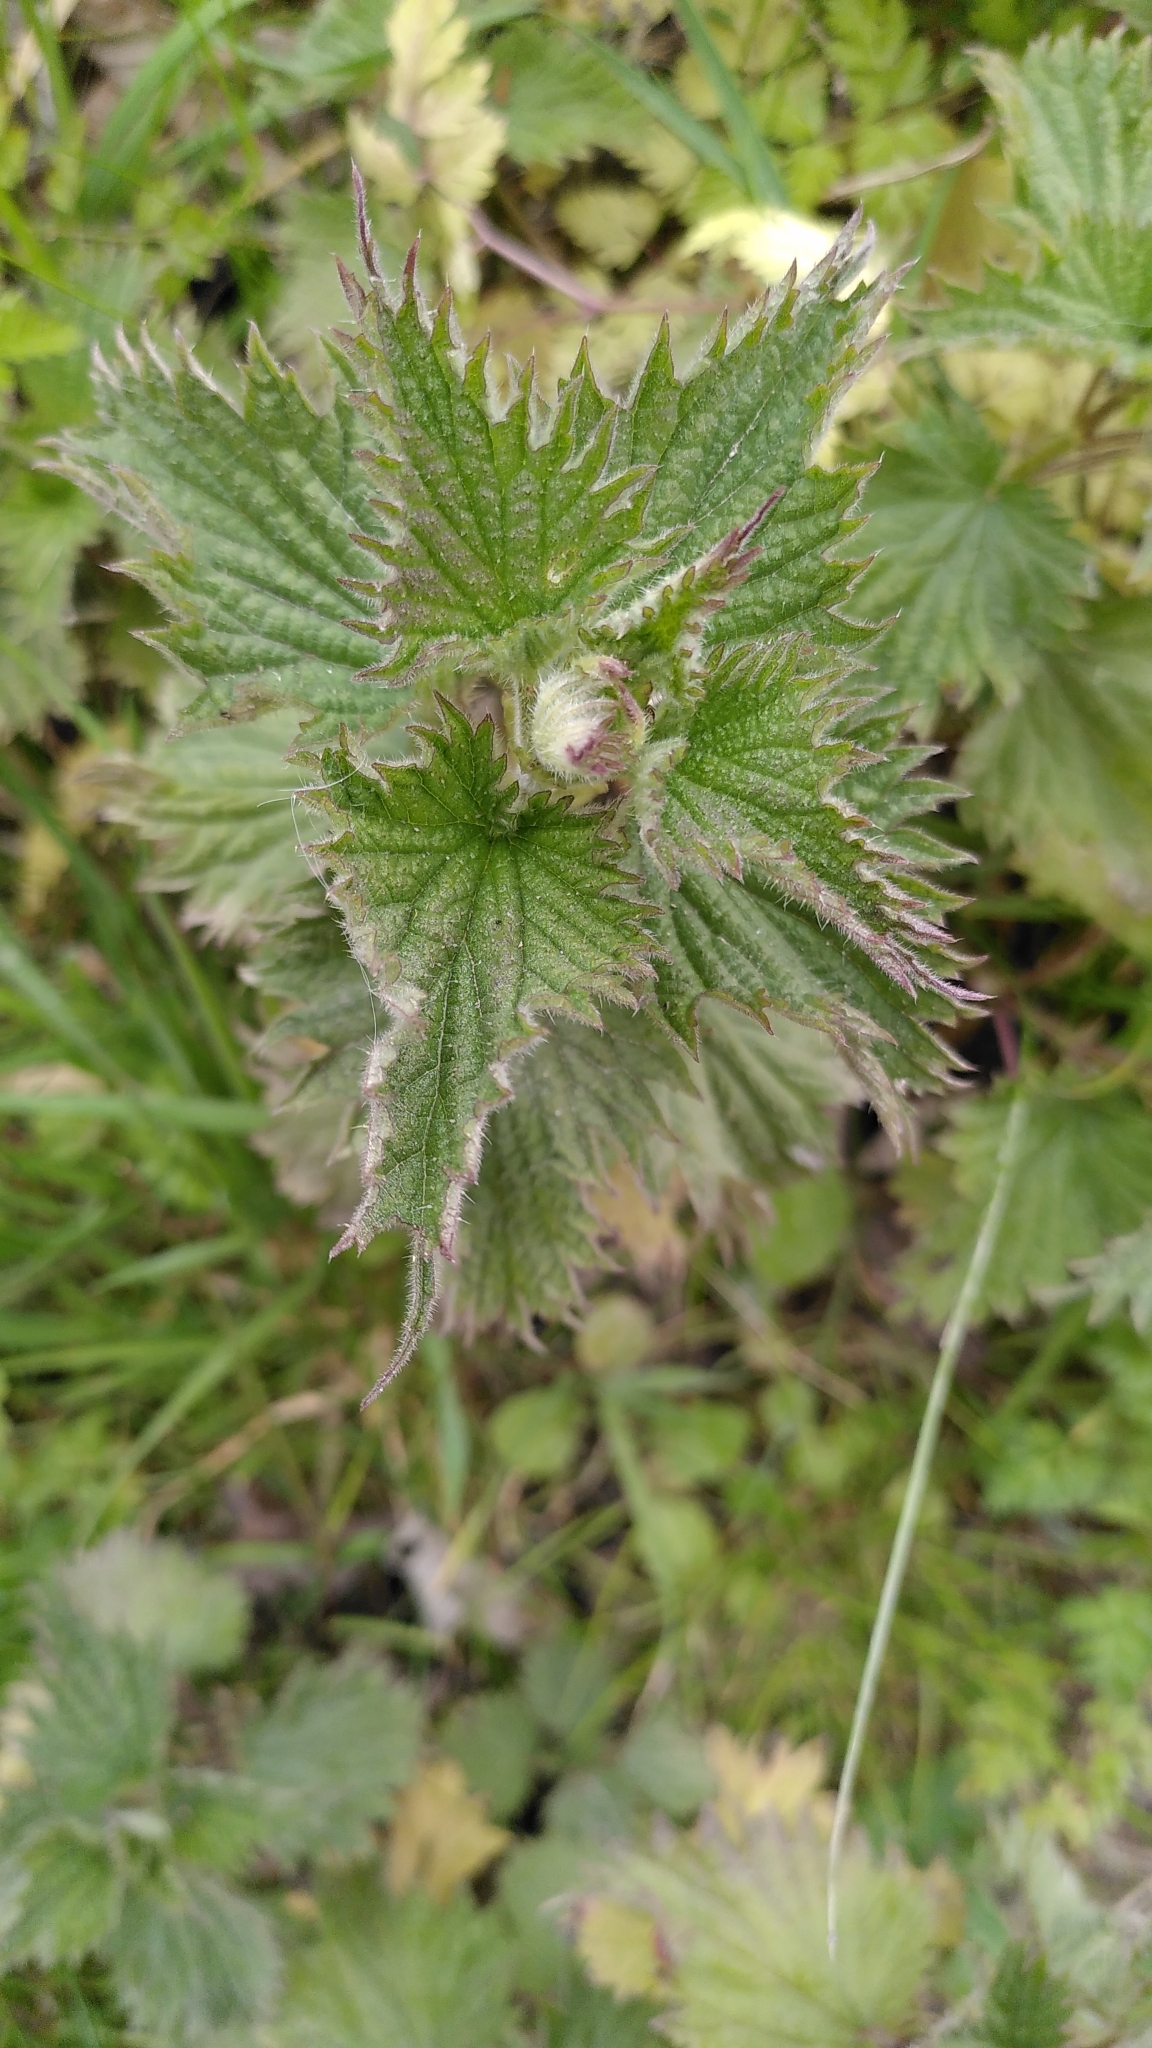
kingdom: Plantae
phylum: Tracheophyta
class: Magnoliopsida
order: Rosales
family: Urticaceae
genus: Urtica
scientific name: Urtica dioica
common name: Common nettle
